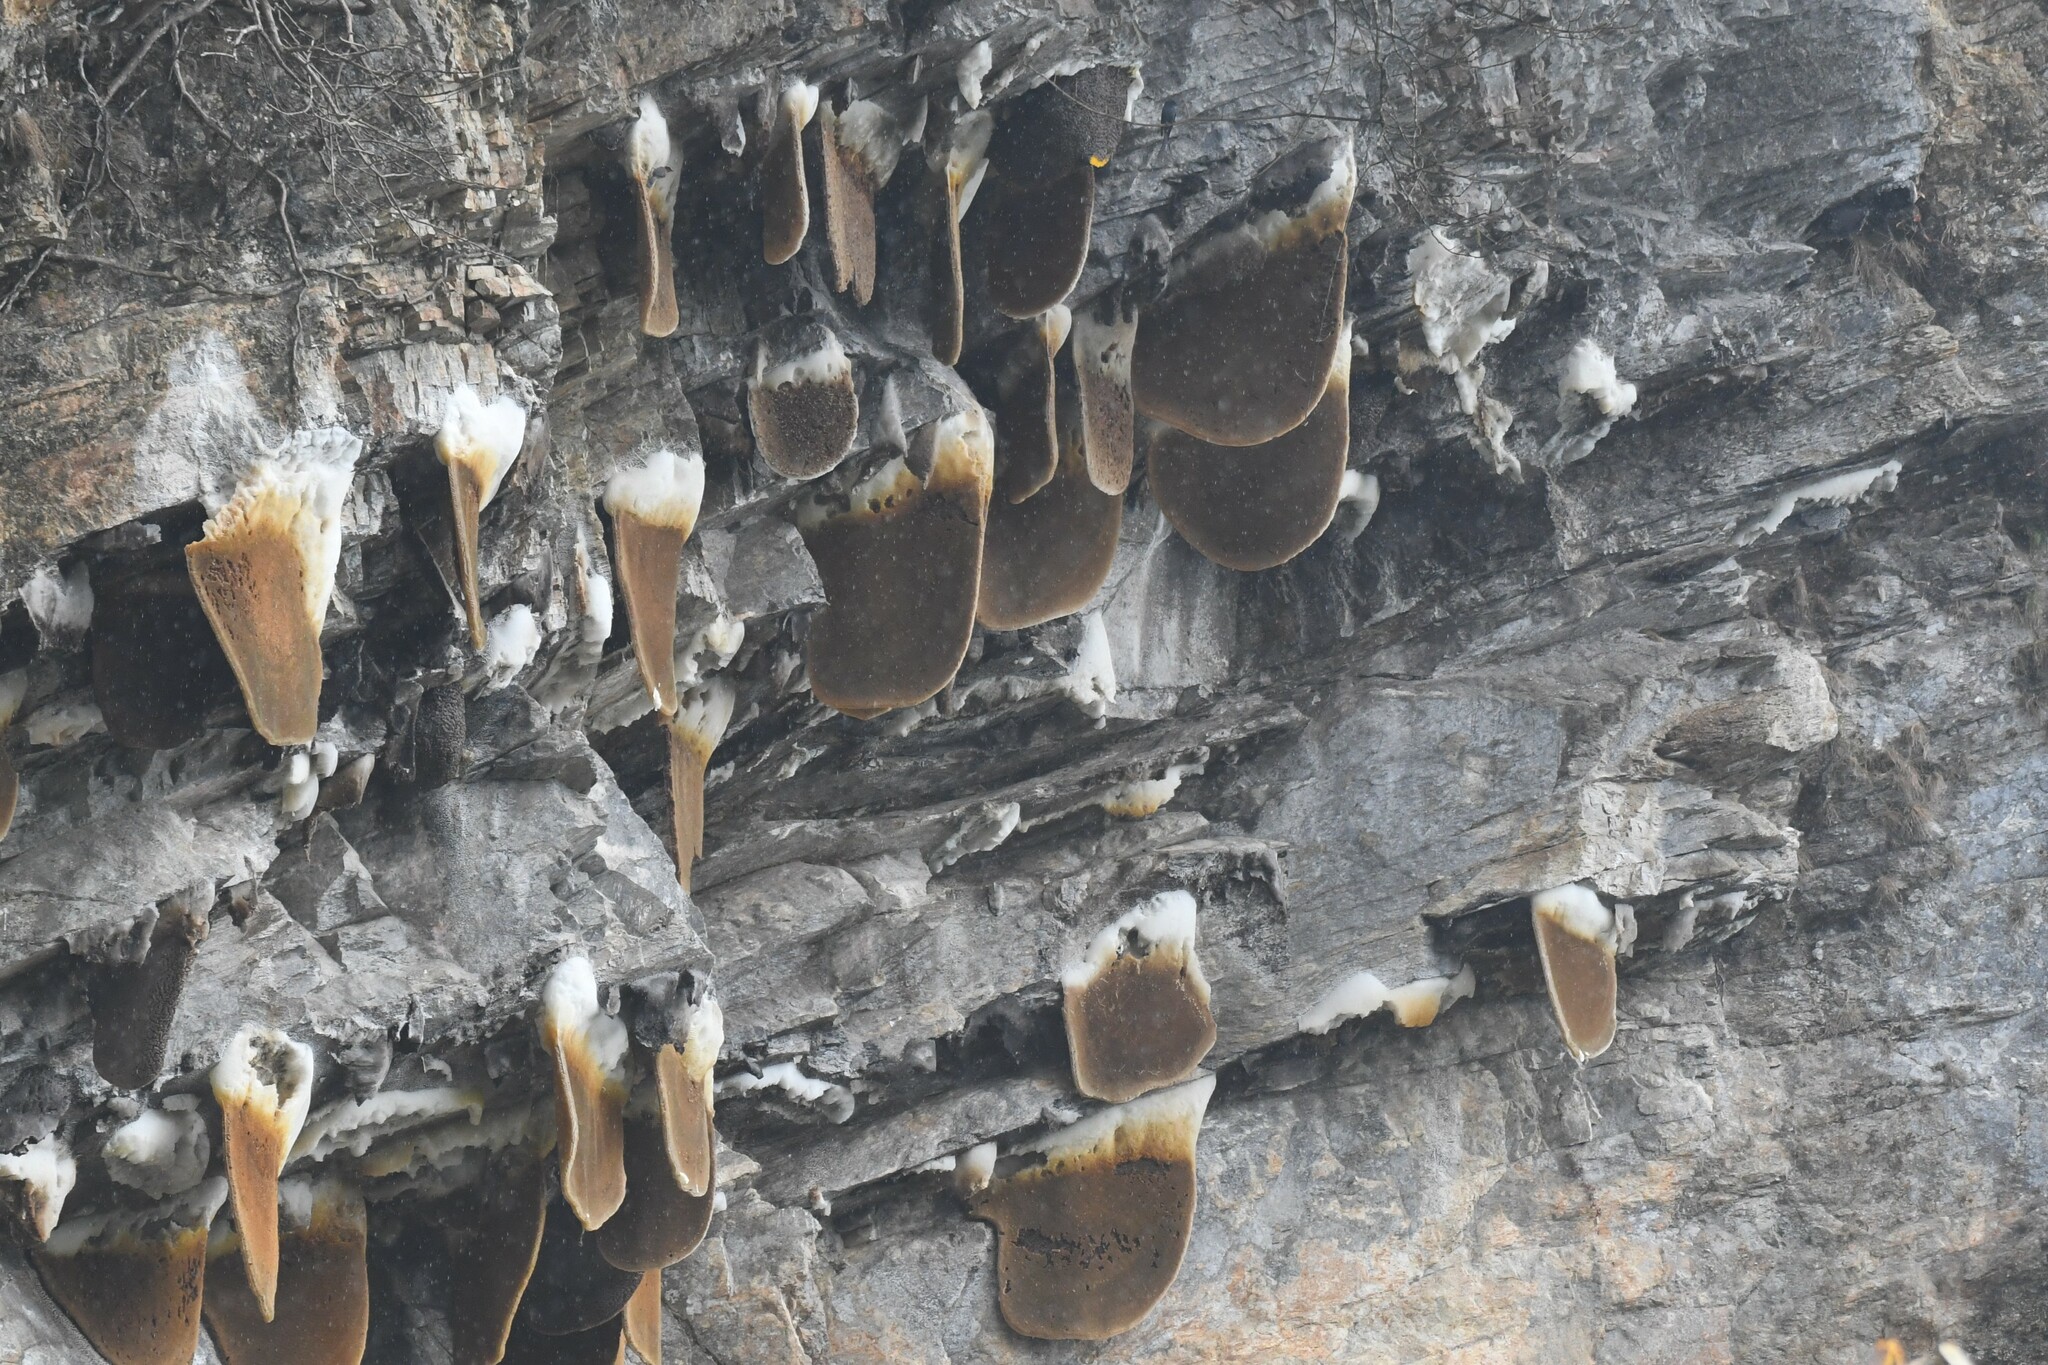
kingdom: Animalia
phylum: Arthropoda
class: Insecta
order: Hymenoptera
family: Apidae
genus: Apis
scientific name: Apis laboriosa
